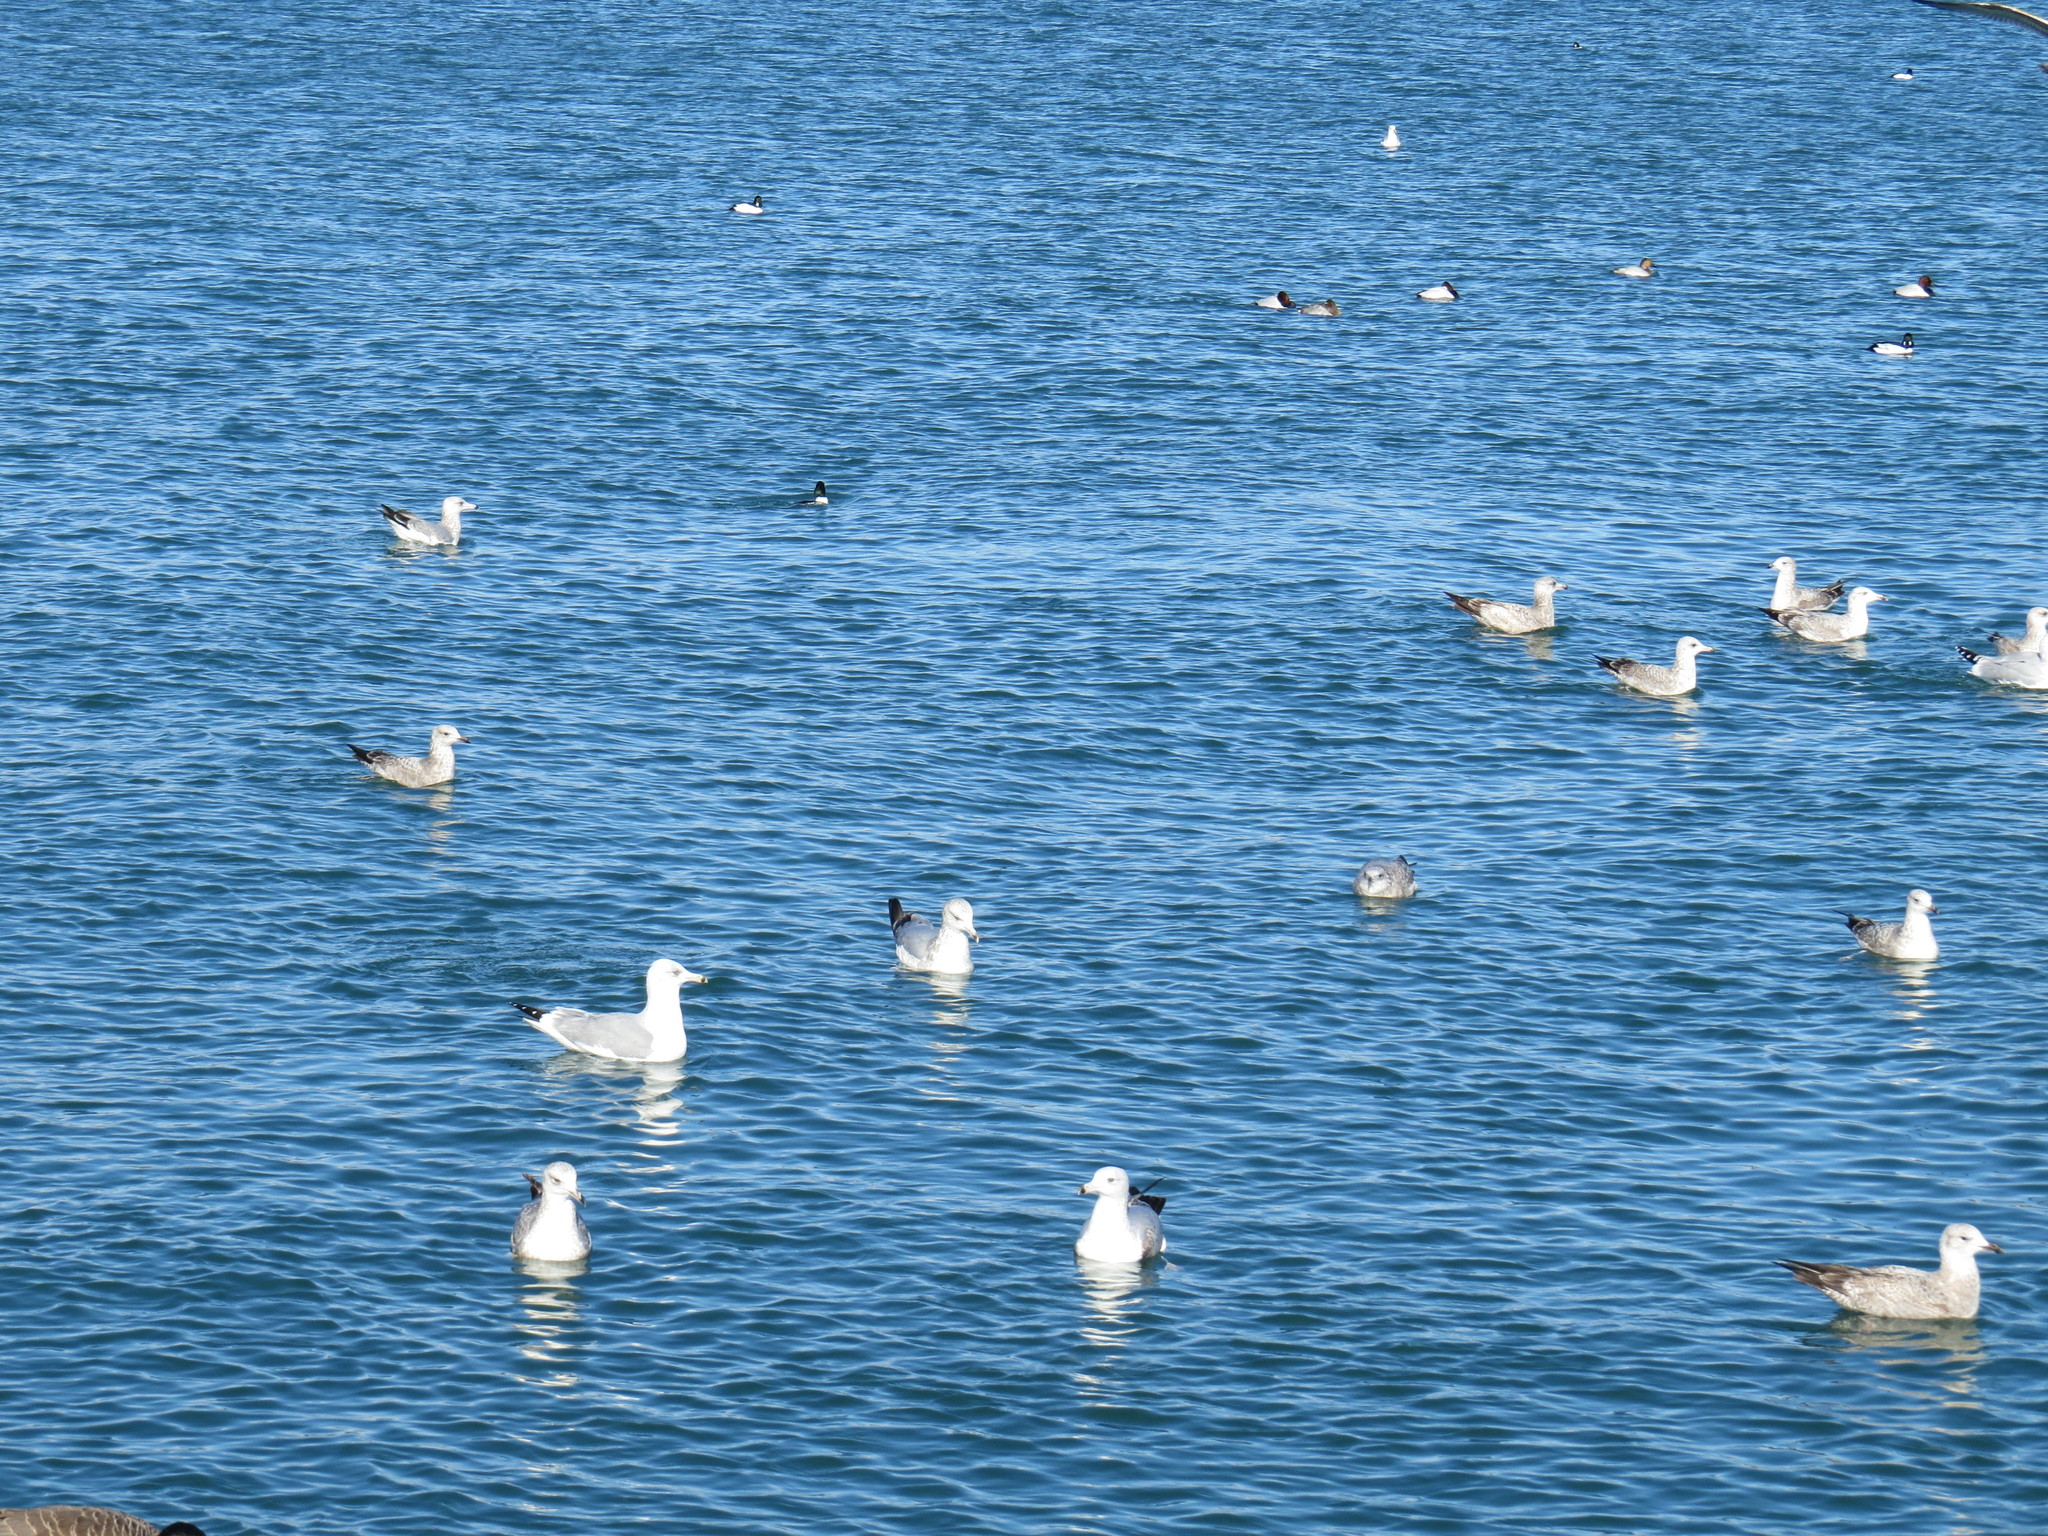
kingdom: Animalia
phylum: Chordata
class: Aves
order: Charadriiformes
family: Laridae
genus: Larus
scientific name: Larus delawarensis
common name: Ring-billed gull
